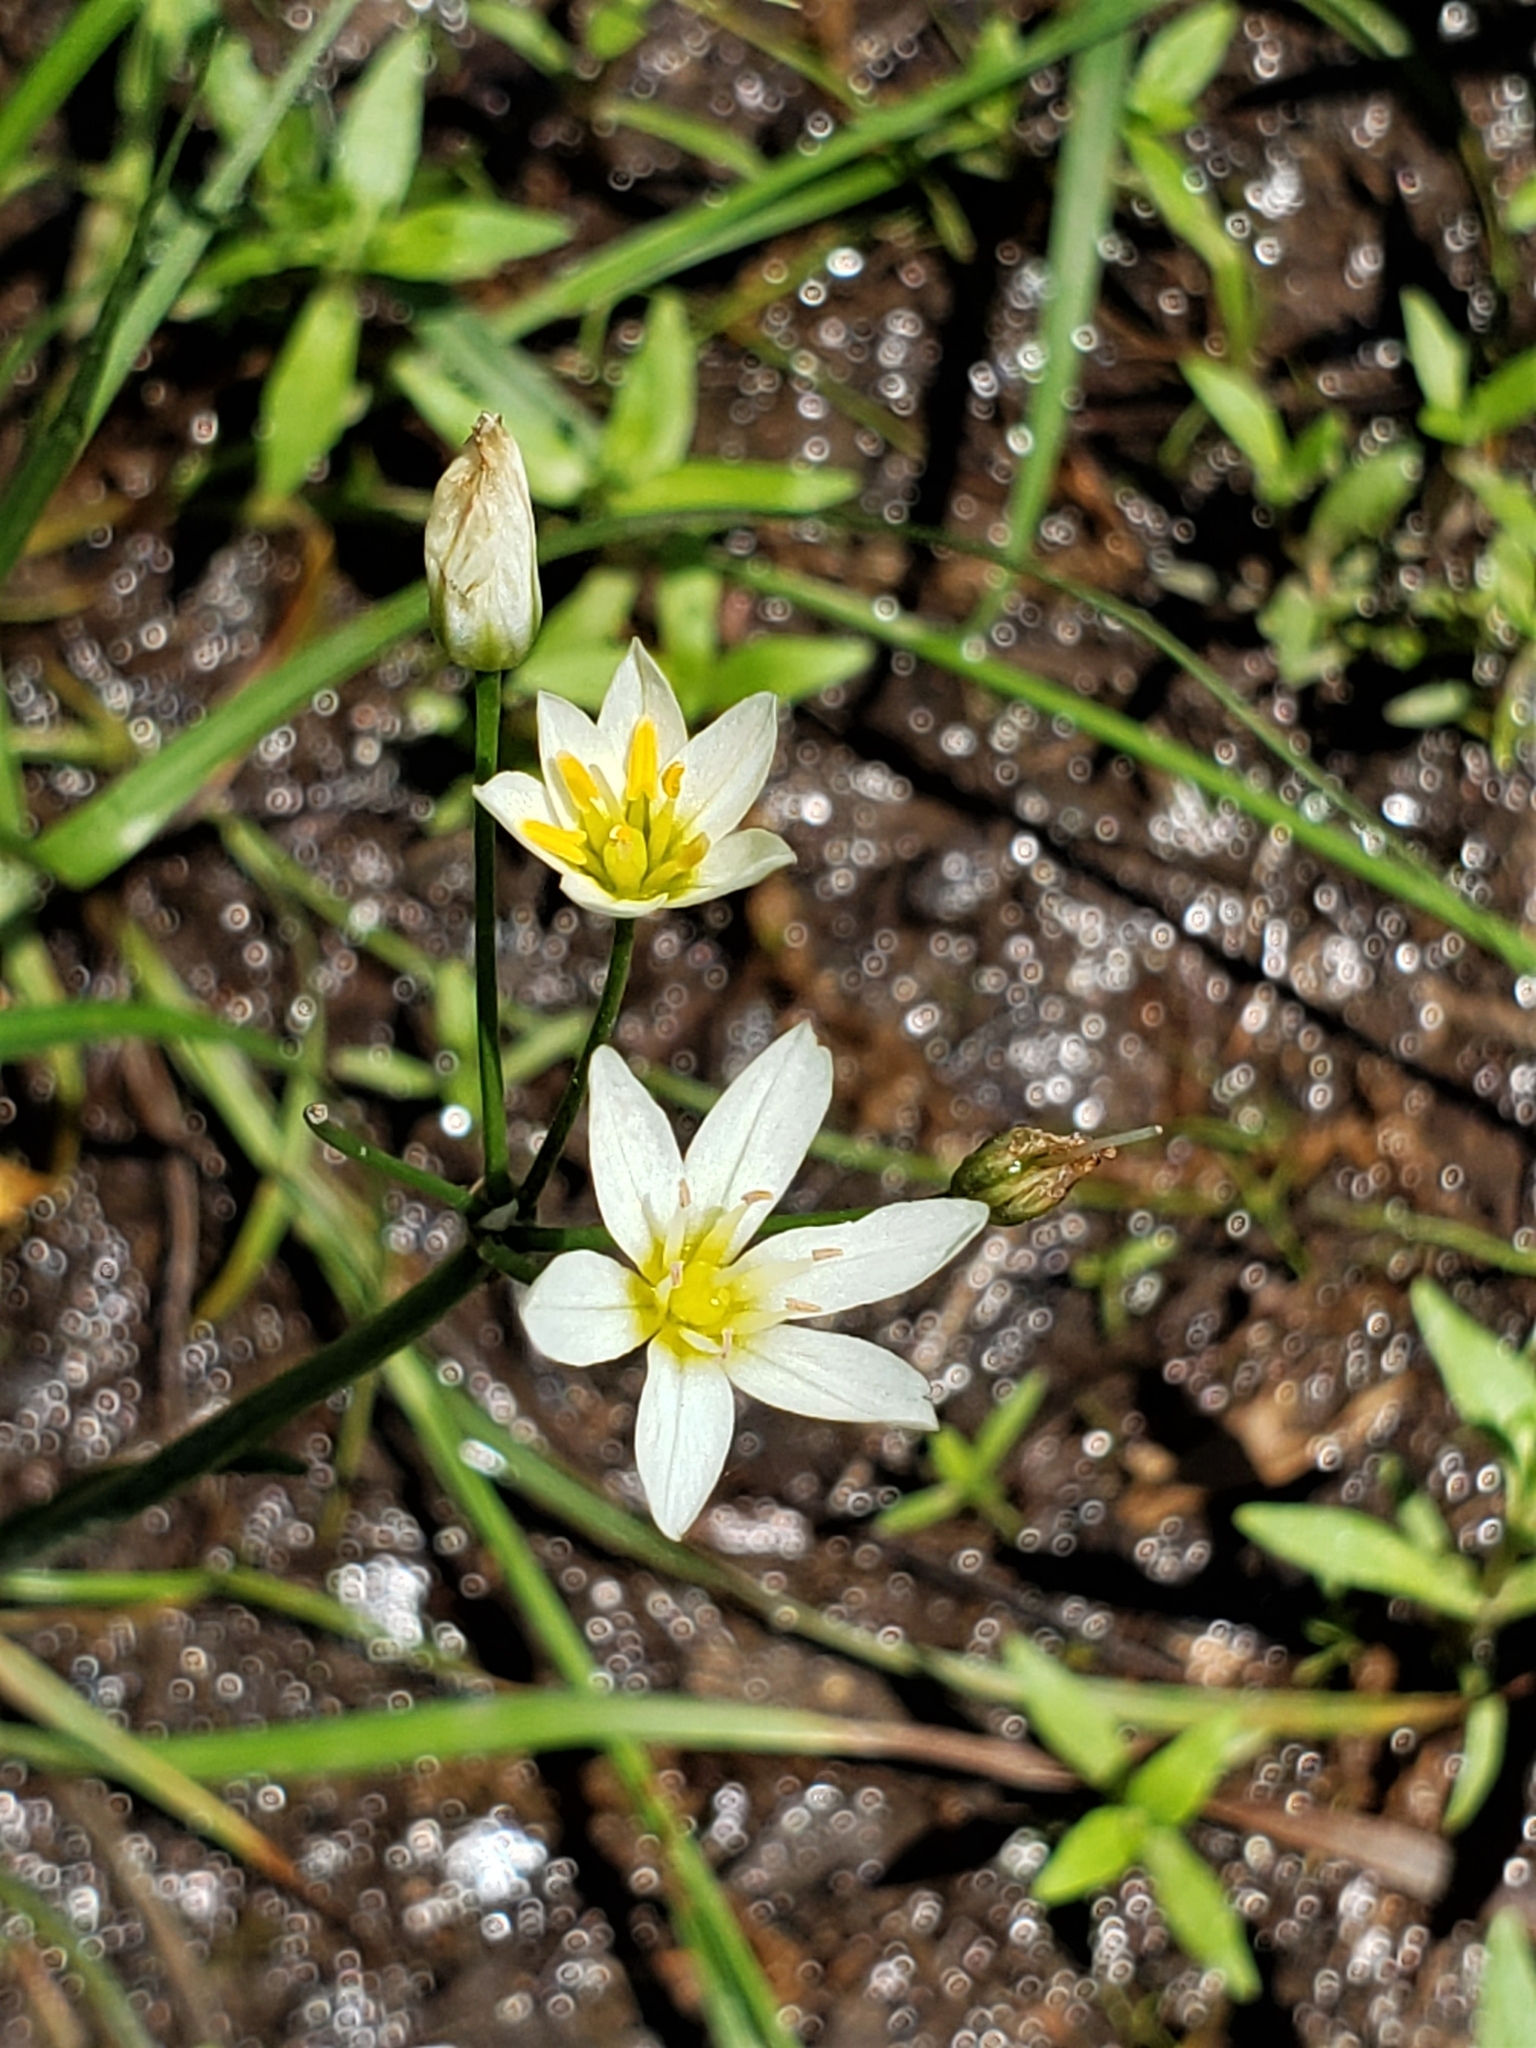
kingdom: Plantae
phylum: Tracheophyta
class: Liliopsida
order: Asparagales
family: Amaryllidaceae
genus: Nothoscordum
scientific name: Nothoscordum bivalve
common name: Crow-poison
